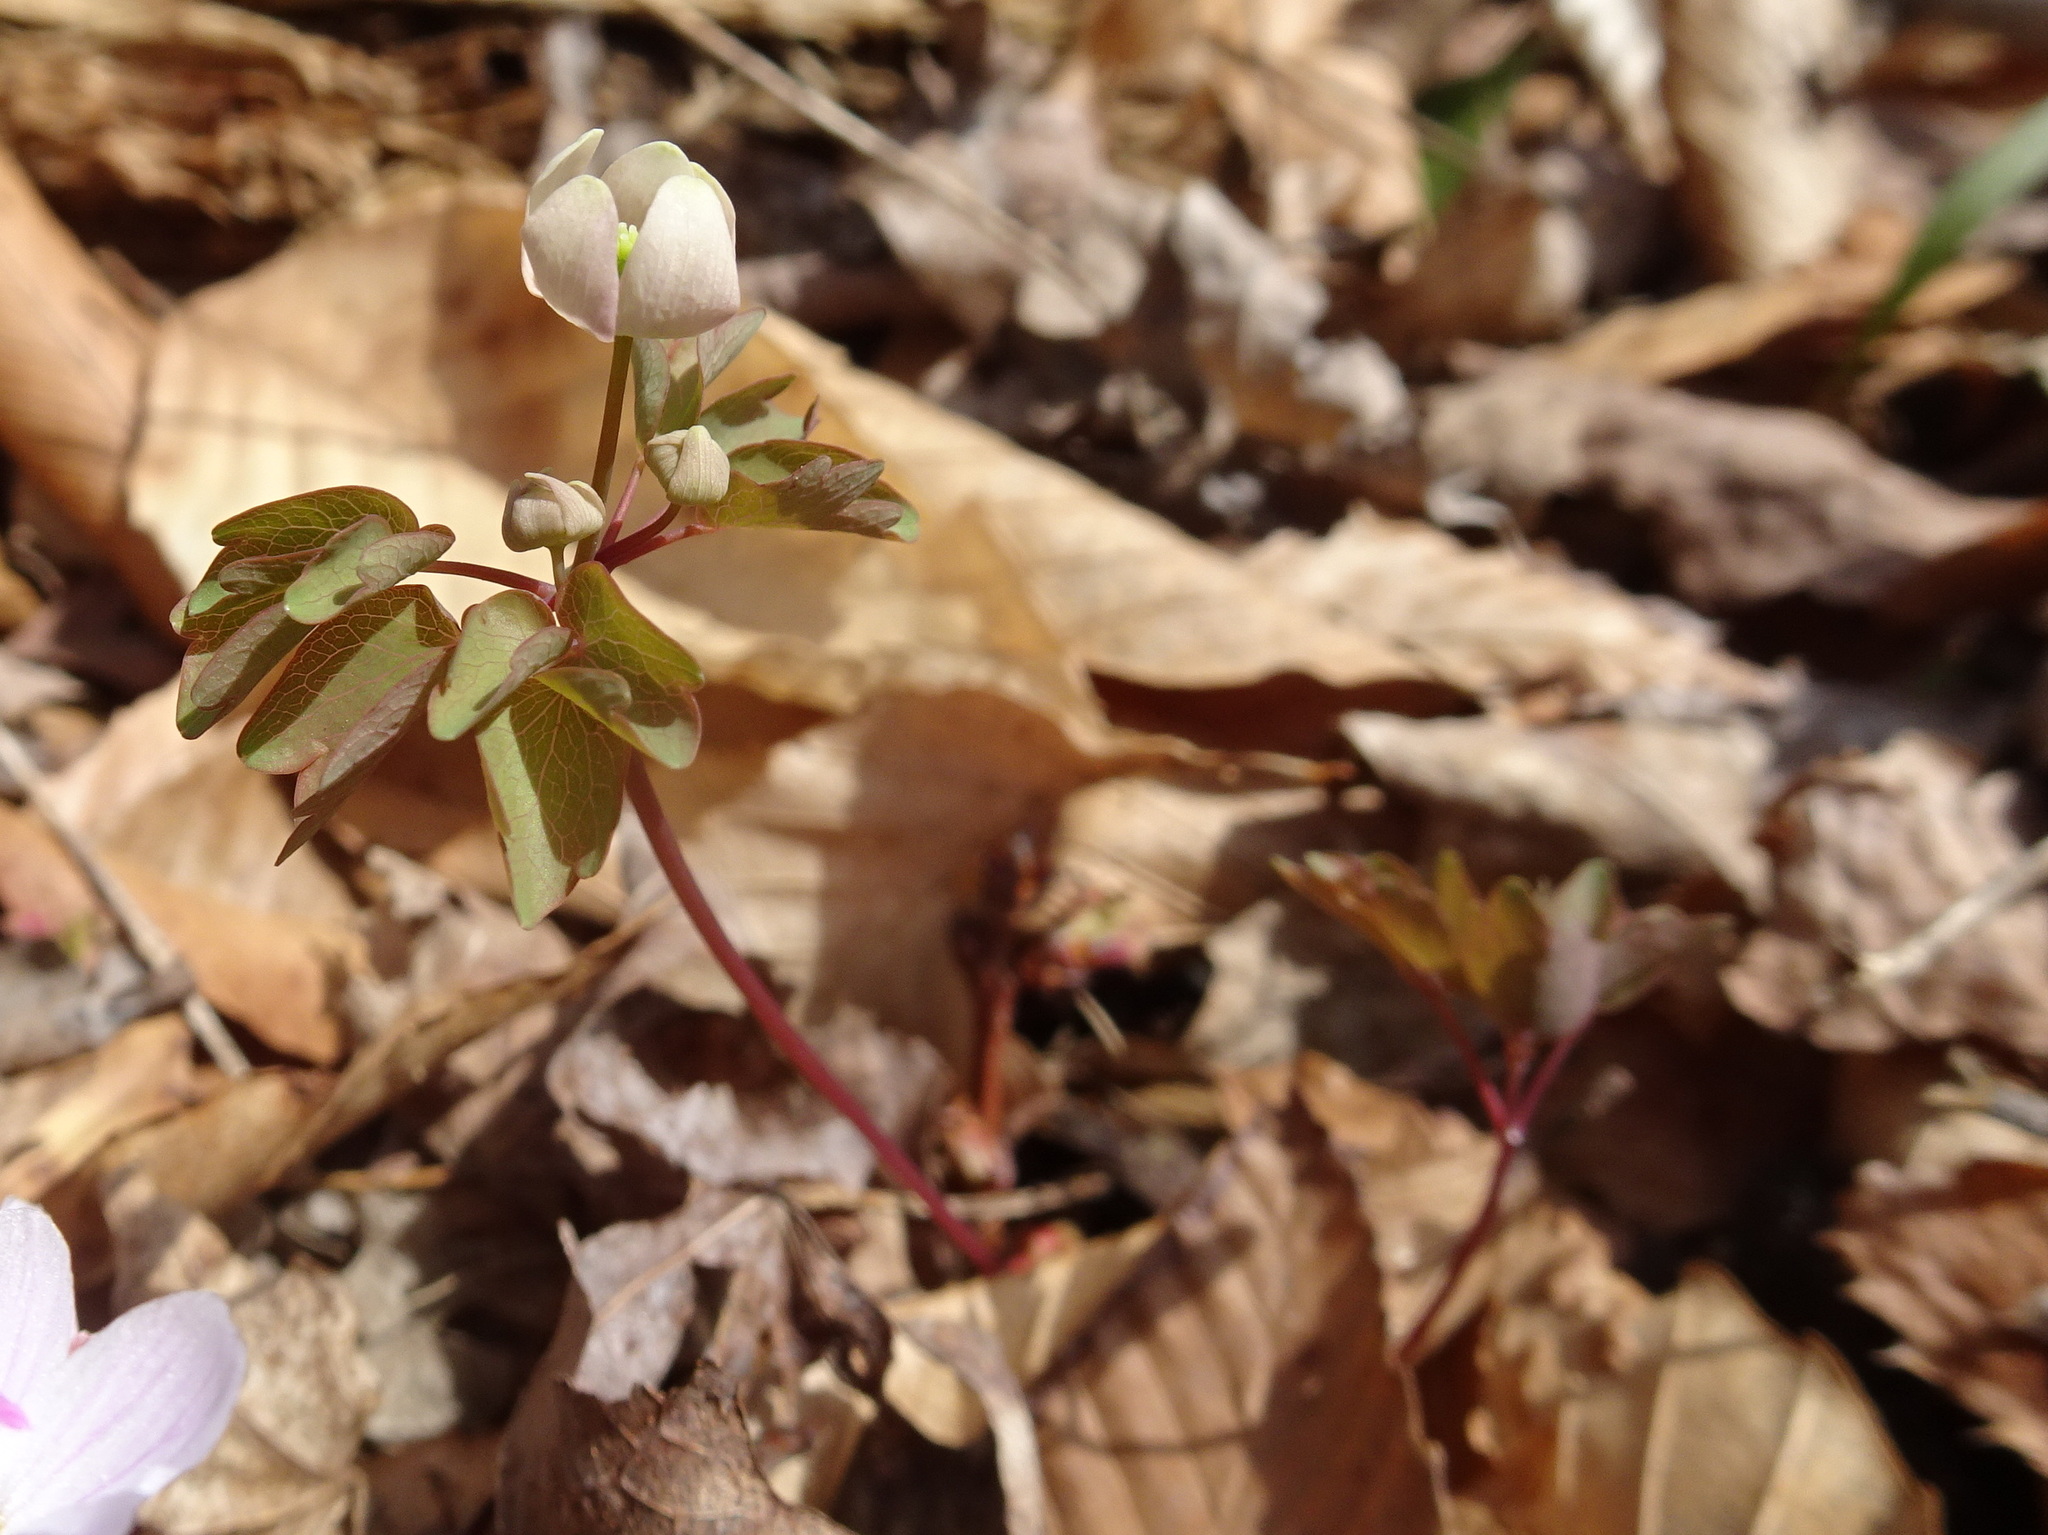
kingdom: Plantae
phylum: Tracheophyta
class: Magnoliopsida
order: Ranunculales
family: Ranunculaceae
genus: Thalictrum
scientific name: Thalictrum thalictroides
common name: Rue-anemone
